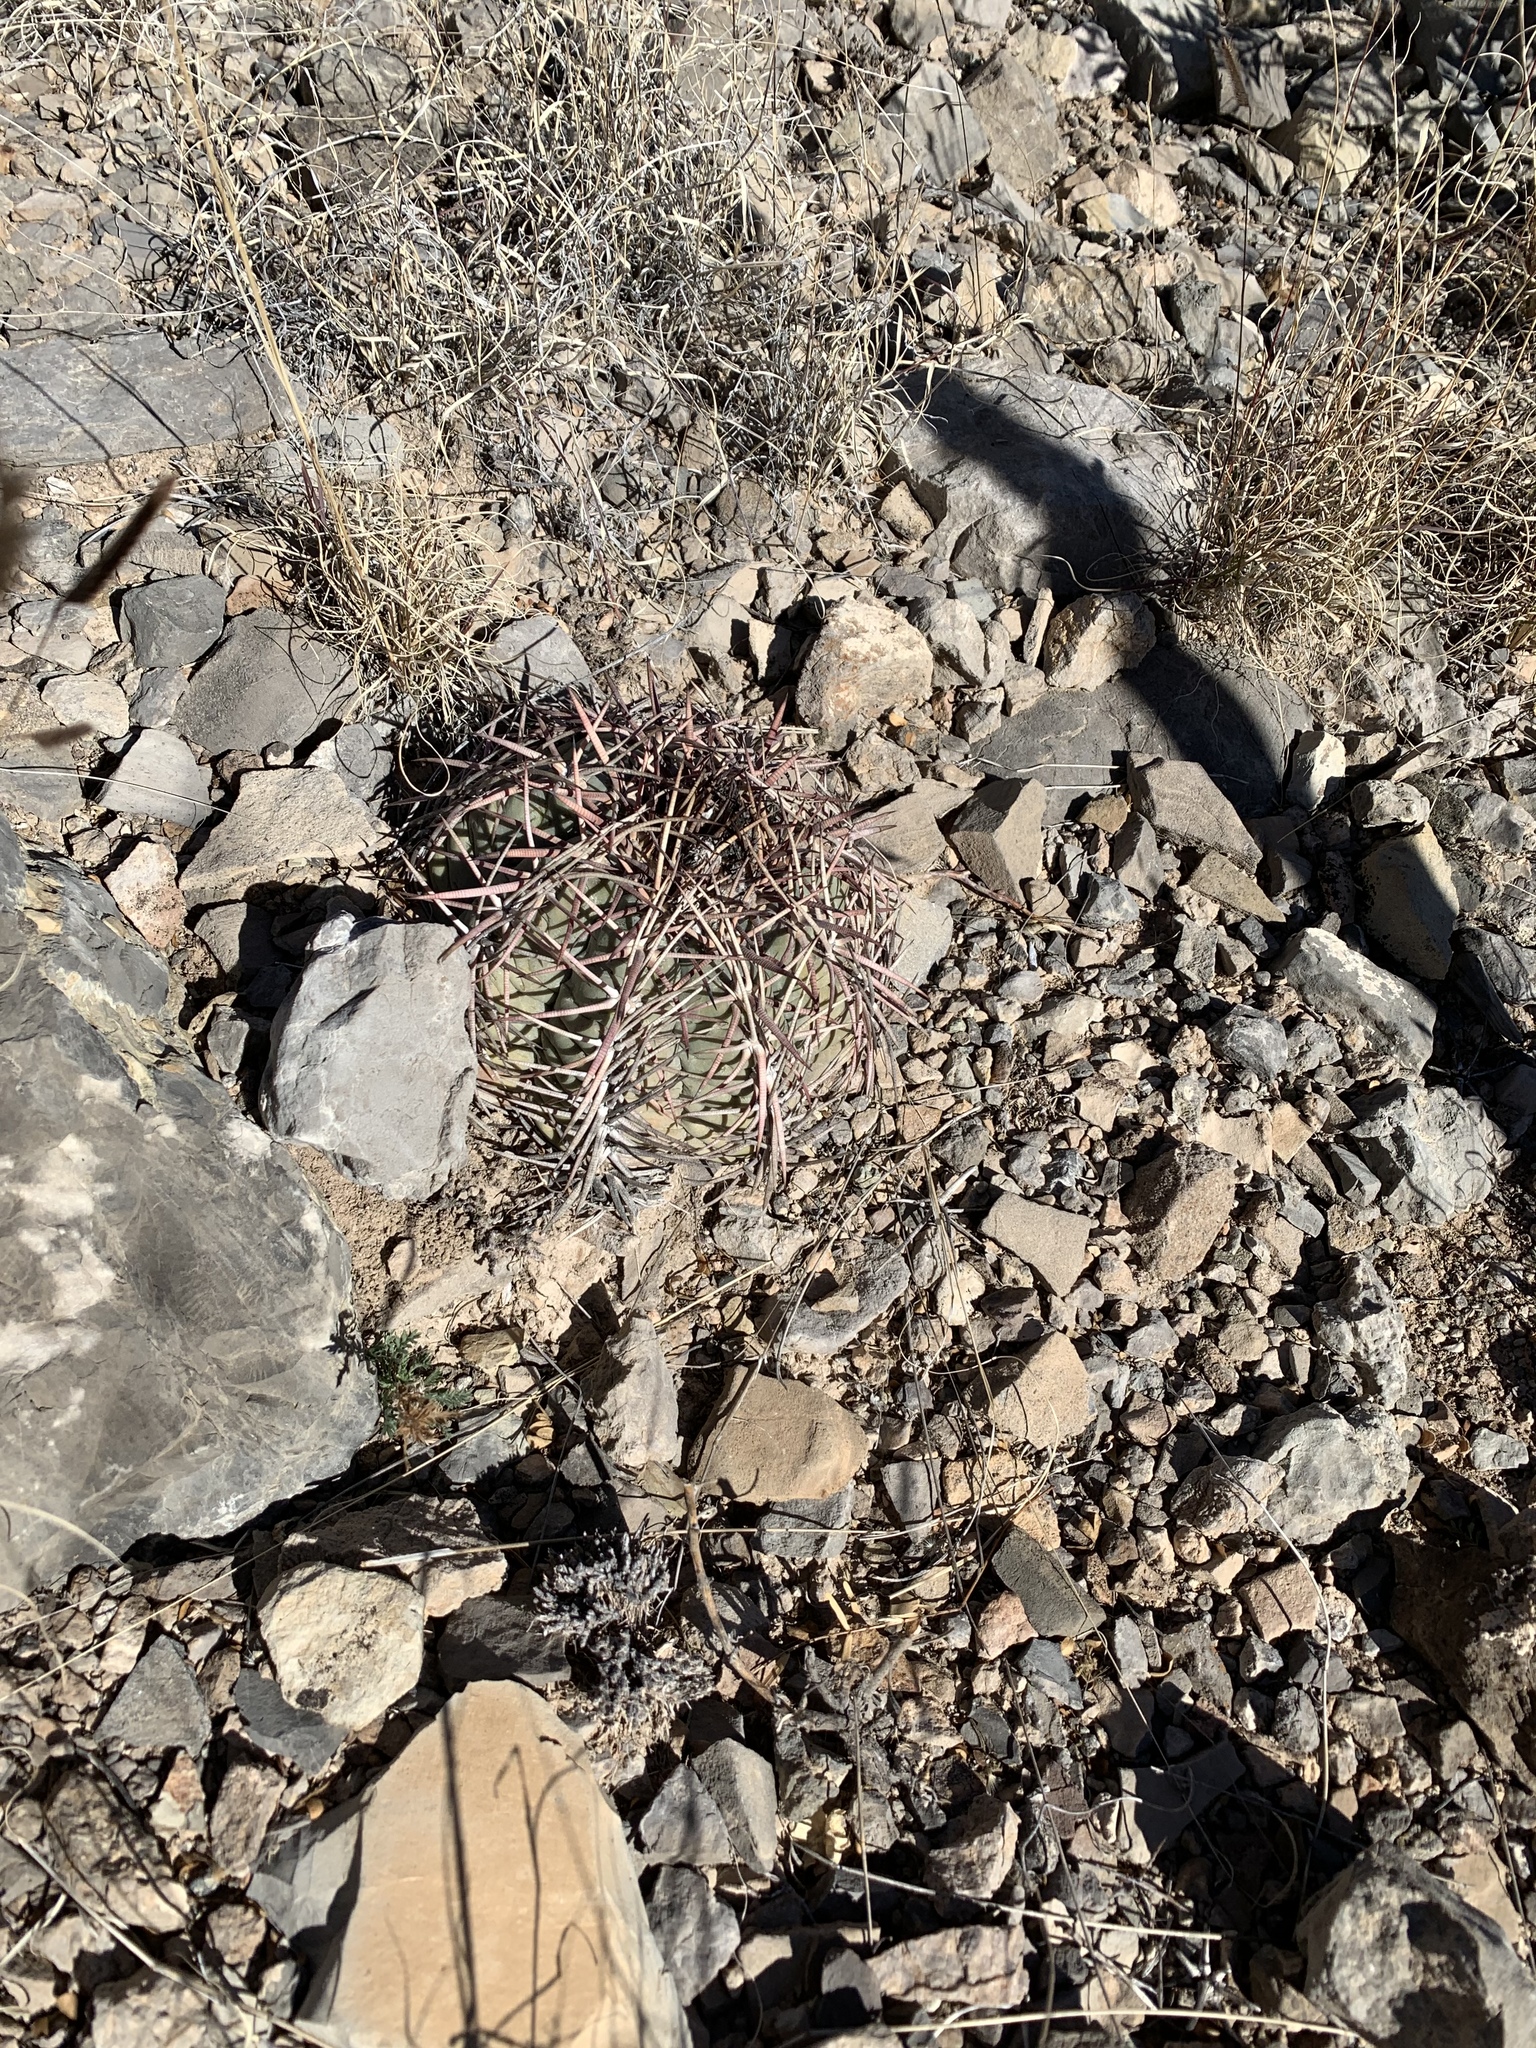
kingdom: Plantae
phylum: Tracheophyta
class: Magnoliopsida
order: Caryophyllales
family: Cactaceae
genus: Echinocactus
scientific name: Echinocactus horizonthalonius
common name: Devilshead
